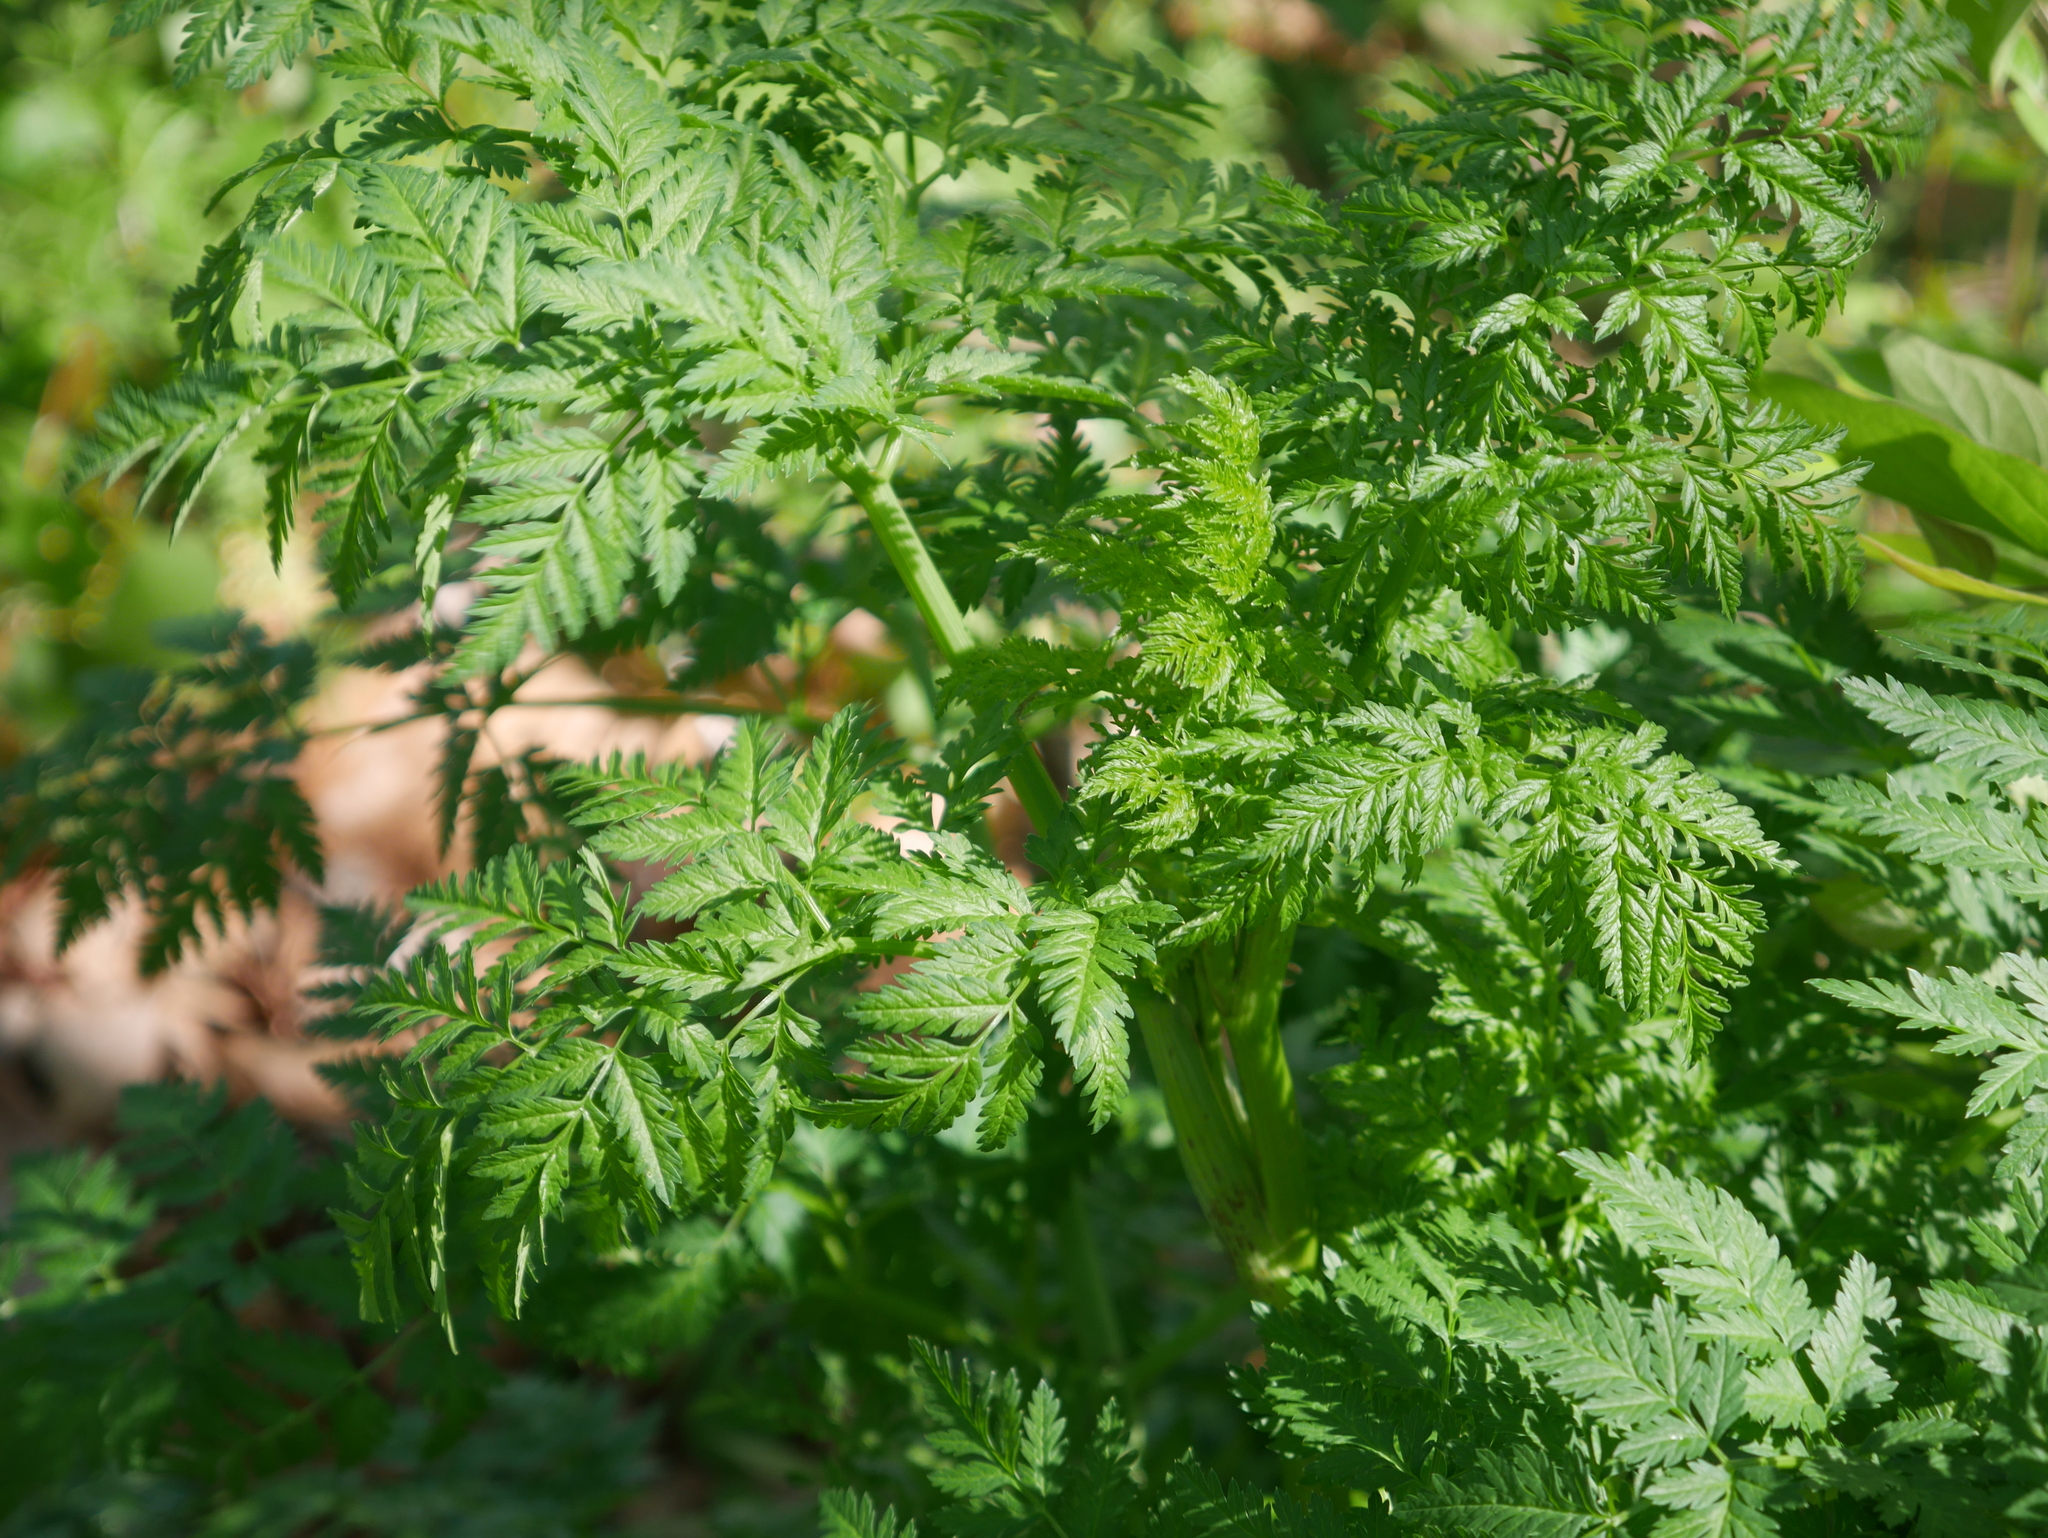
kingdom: Plantae
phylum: Tracheophyta
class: Magnoliopsida
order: Apiales
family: Apiaceae
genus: Conium
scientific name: Conium maculatum
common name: Hemlock
